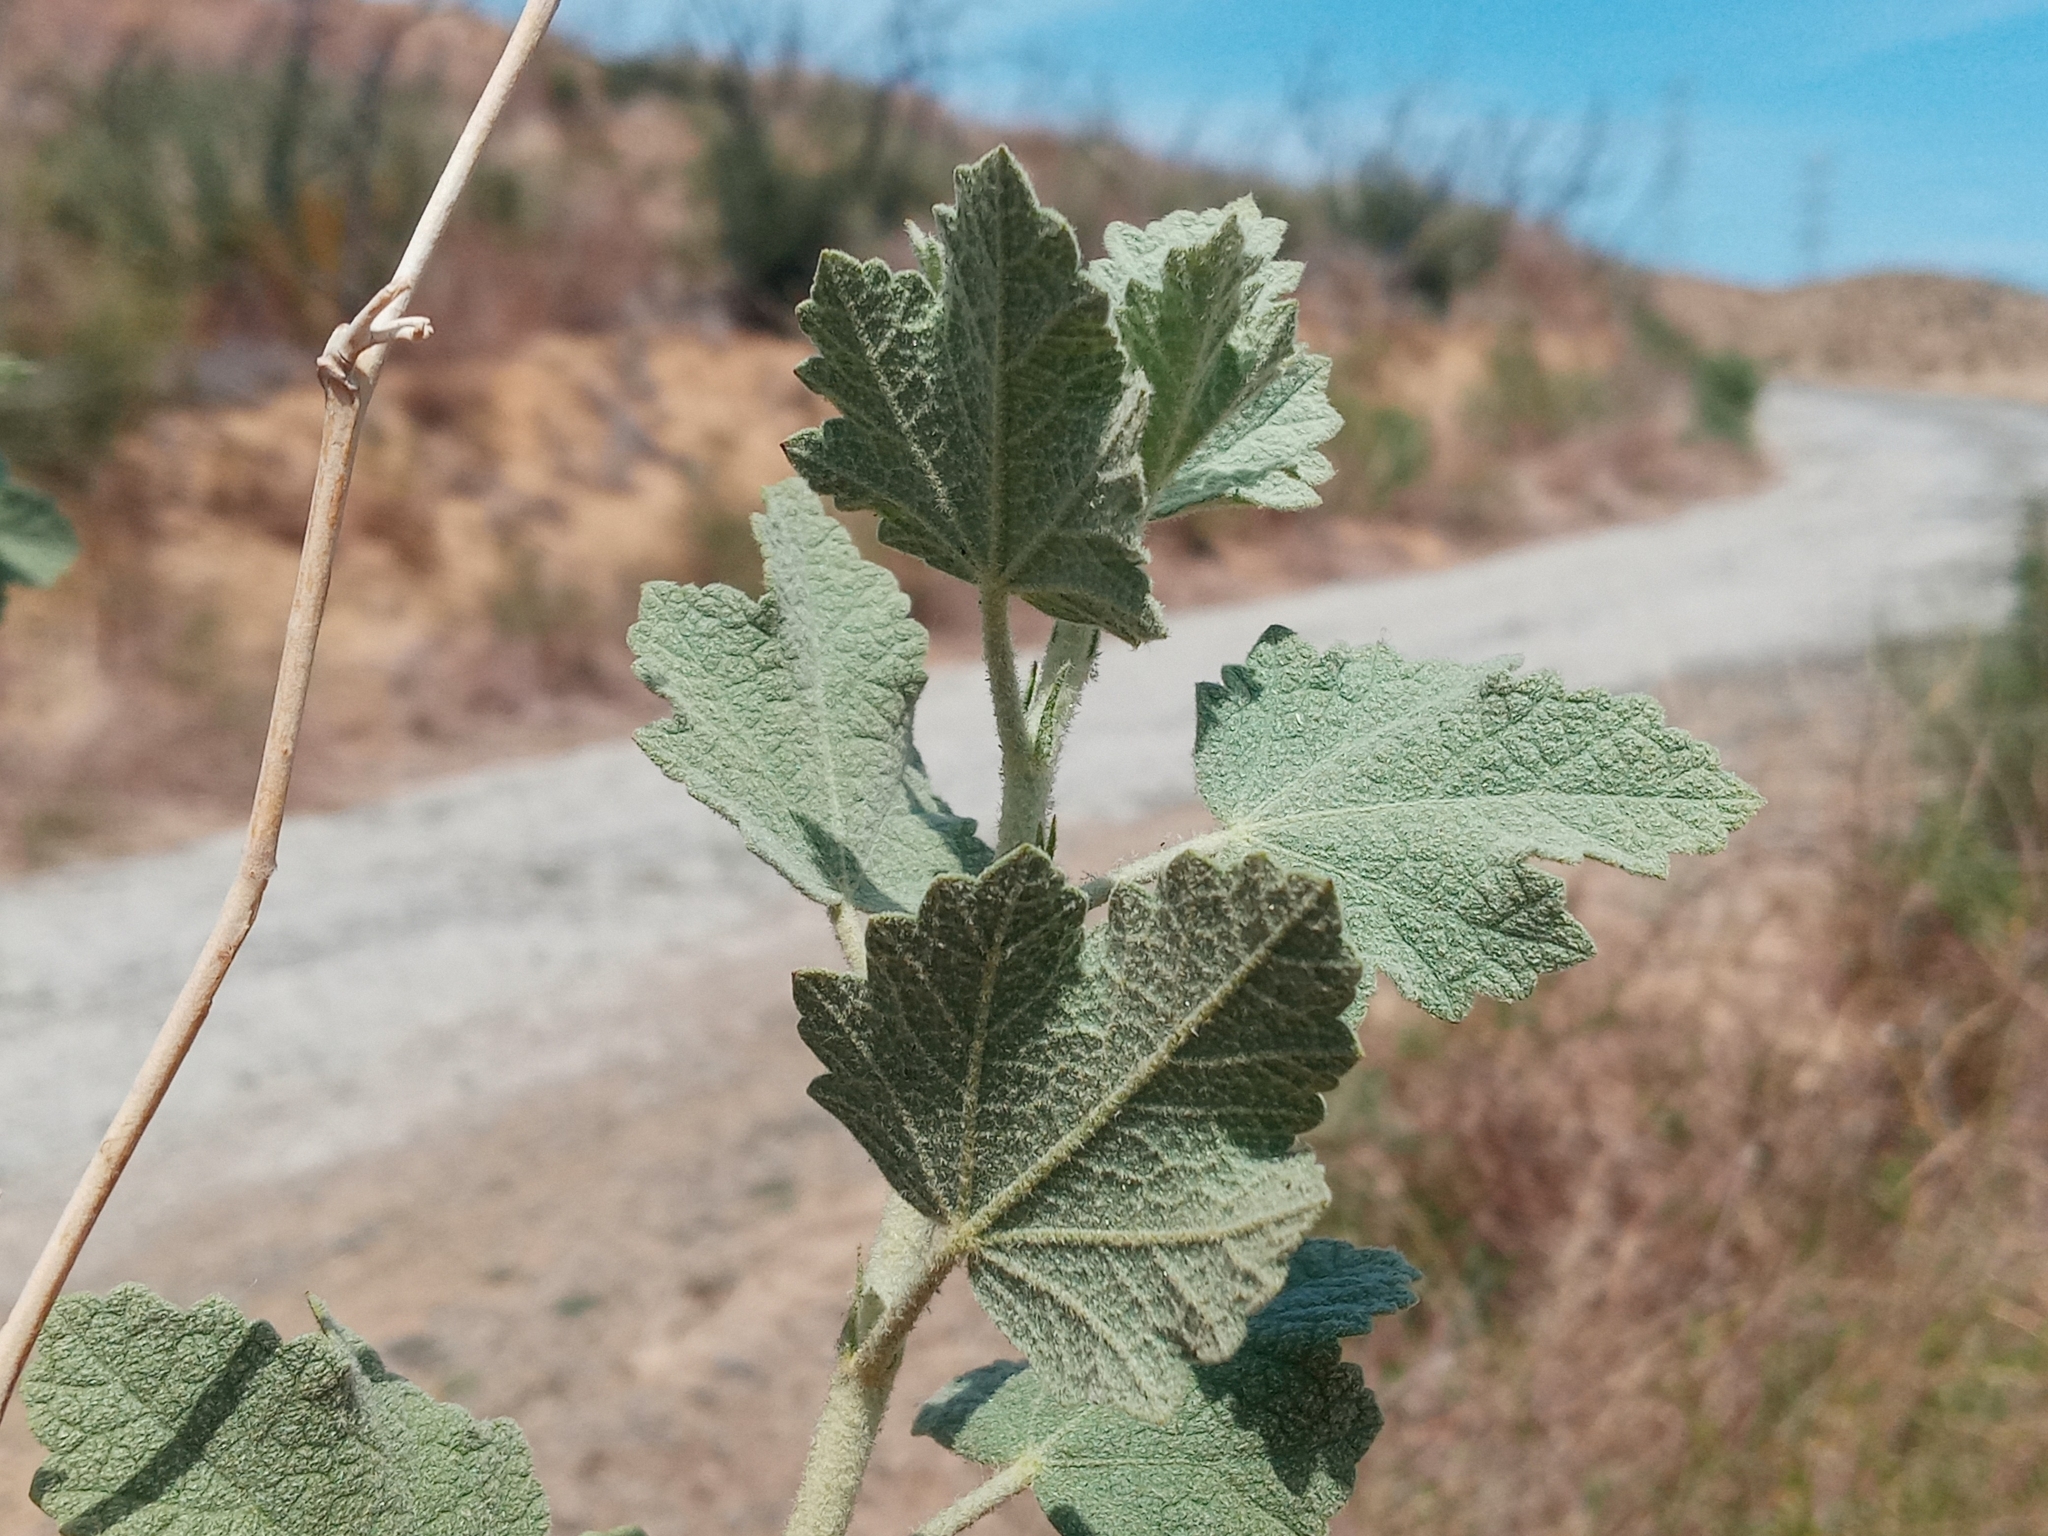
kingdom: Plantae
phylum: Tracheophyta
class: Magnoliopsida
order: Malvales
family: Malvaceae
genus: Malacothamnus
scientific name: Malacothamnus marrubioides
